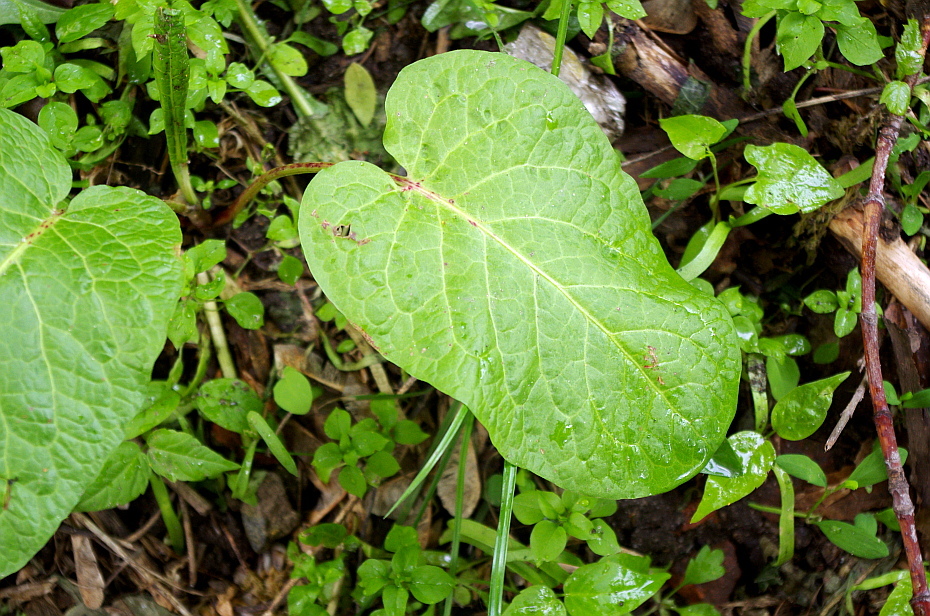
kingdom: Plantae
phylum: Tracheophyta
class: Magnoliopsida
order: Caryophyllales
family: Polygonaceae
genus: Rumex
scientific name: Rumex obtusifolius
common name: Bitter dock
